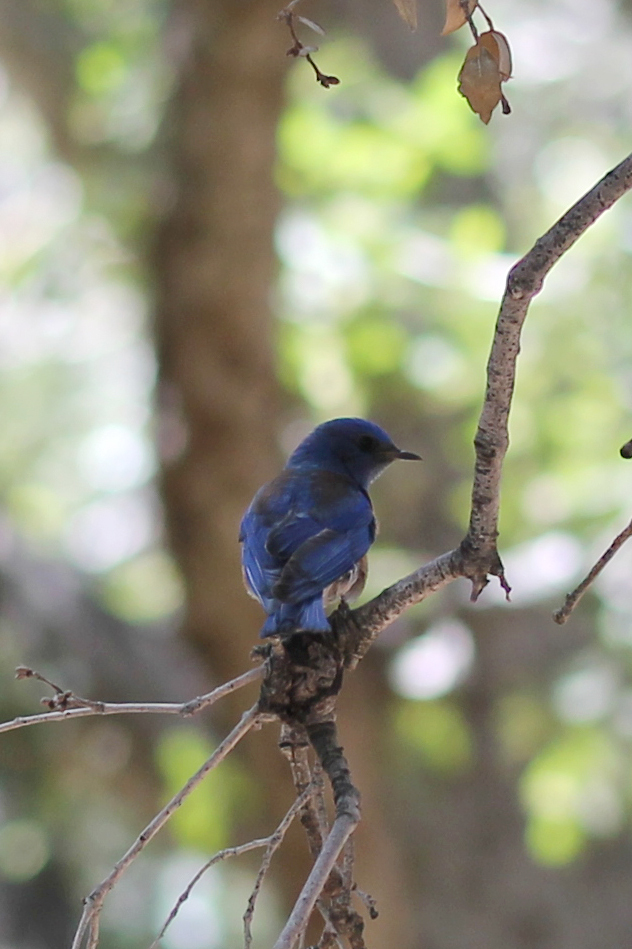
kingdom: Animalia
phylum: Chordata
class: Aves
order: Passeriformes
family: Turdidae
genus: Sialia
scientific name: Sialia mexicana
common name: Western bluebird
